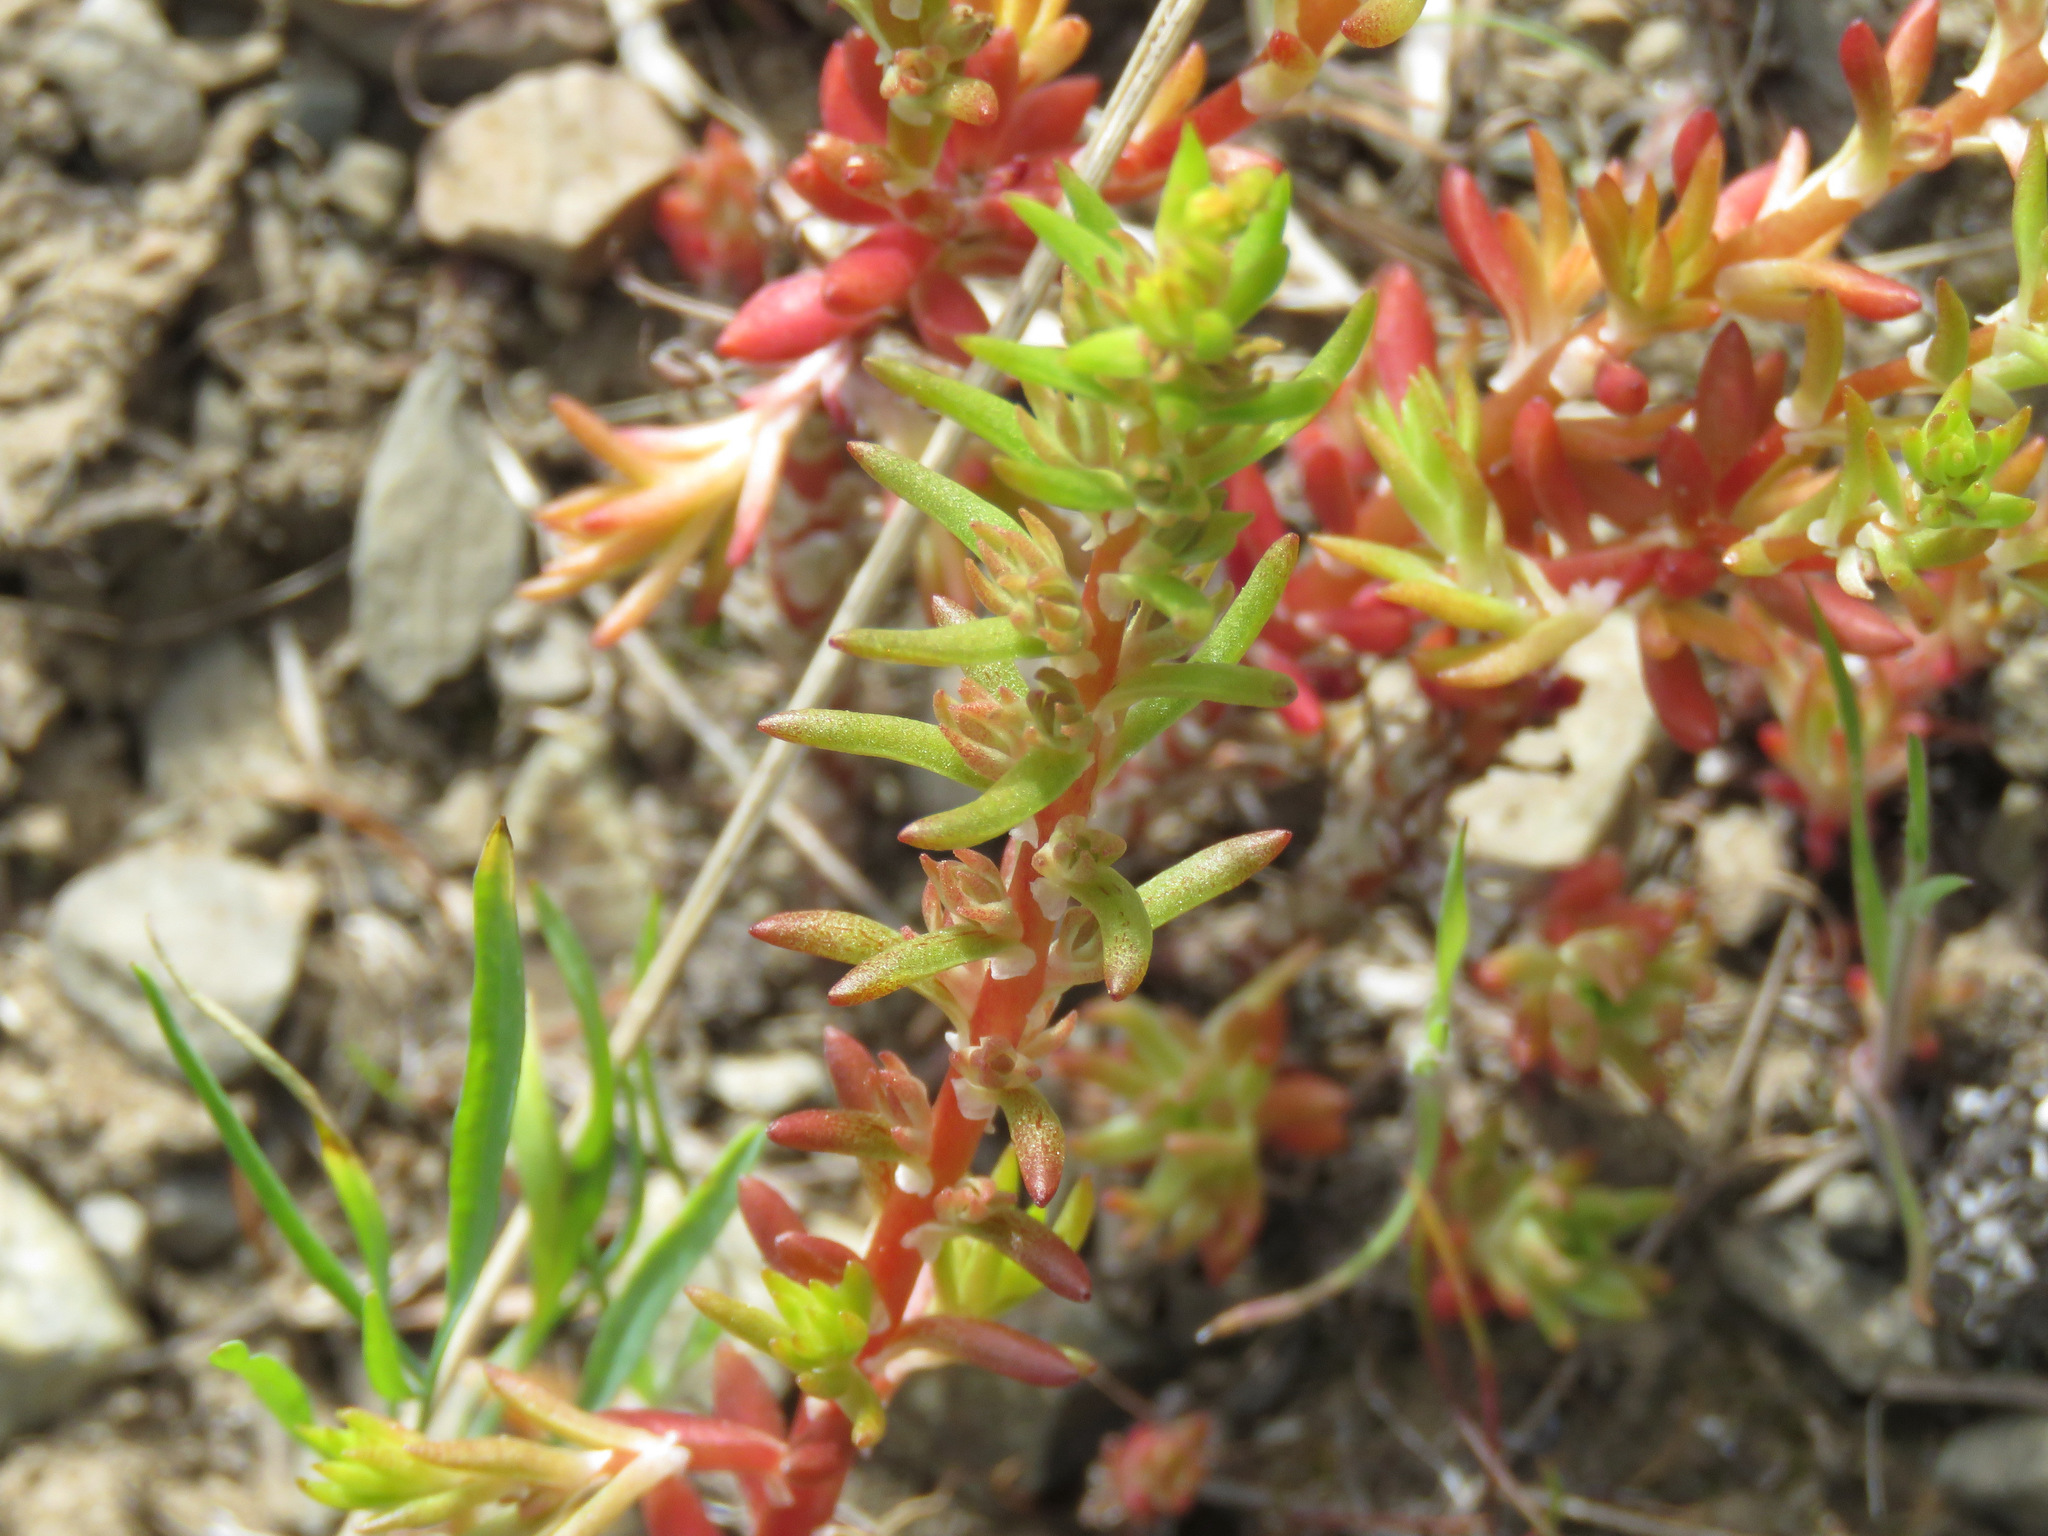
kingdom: Plantae
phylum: Tracheophyta
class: Magnoliopsida
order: Saxifragales
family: Crassulaceae
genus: Sedum
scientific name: Sedum stenopetalum
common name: Narrow-petaled stonecrop
